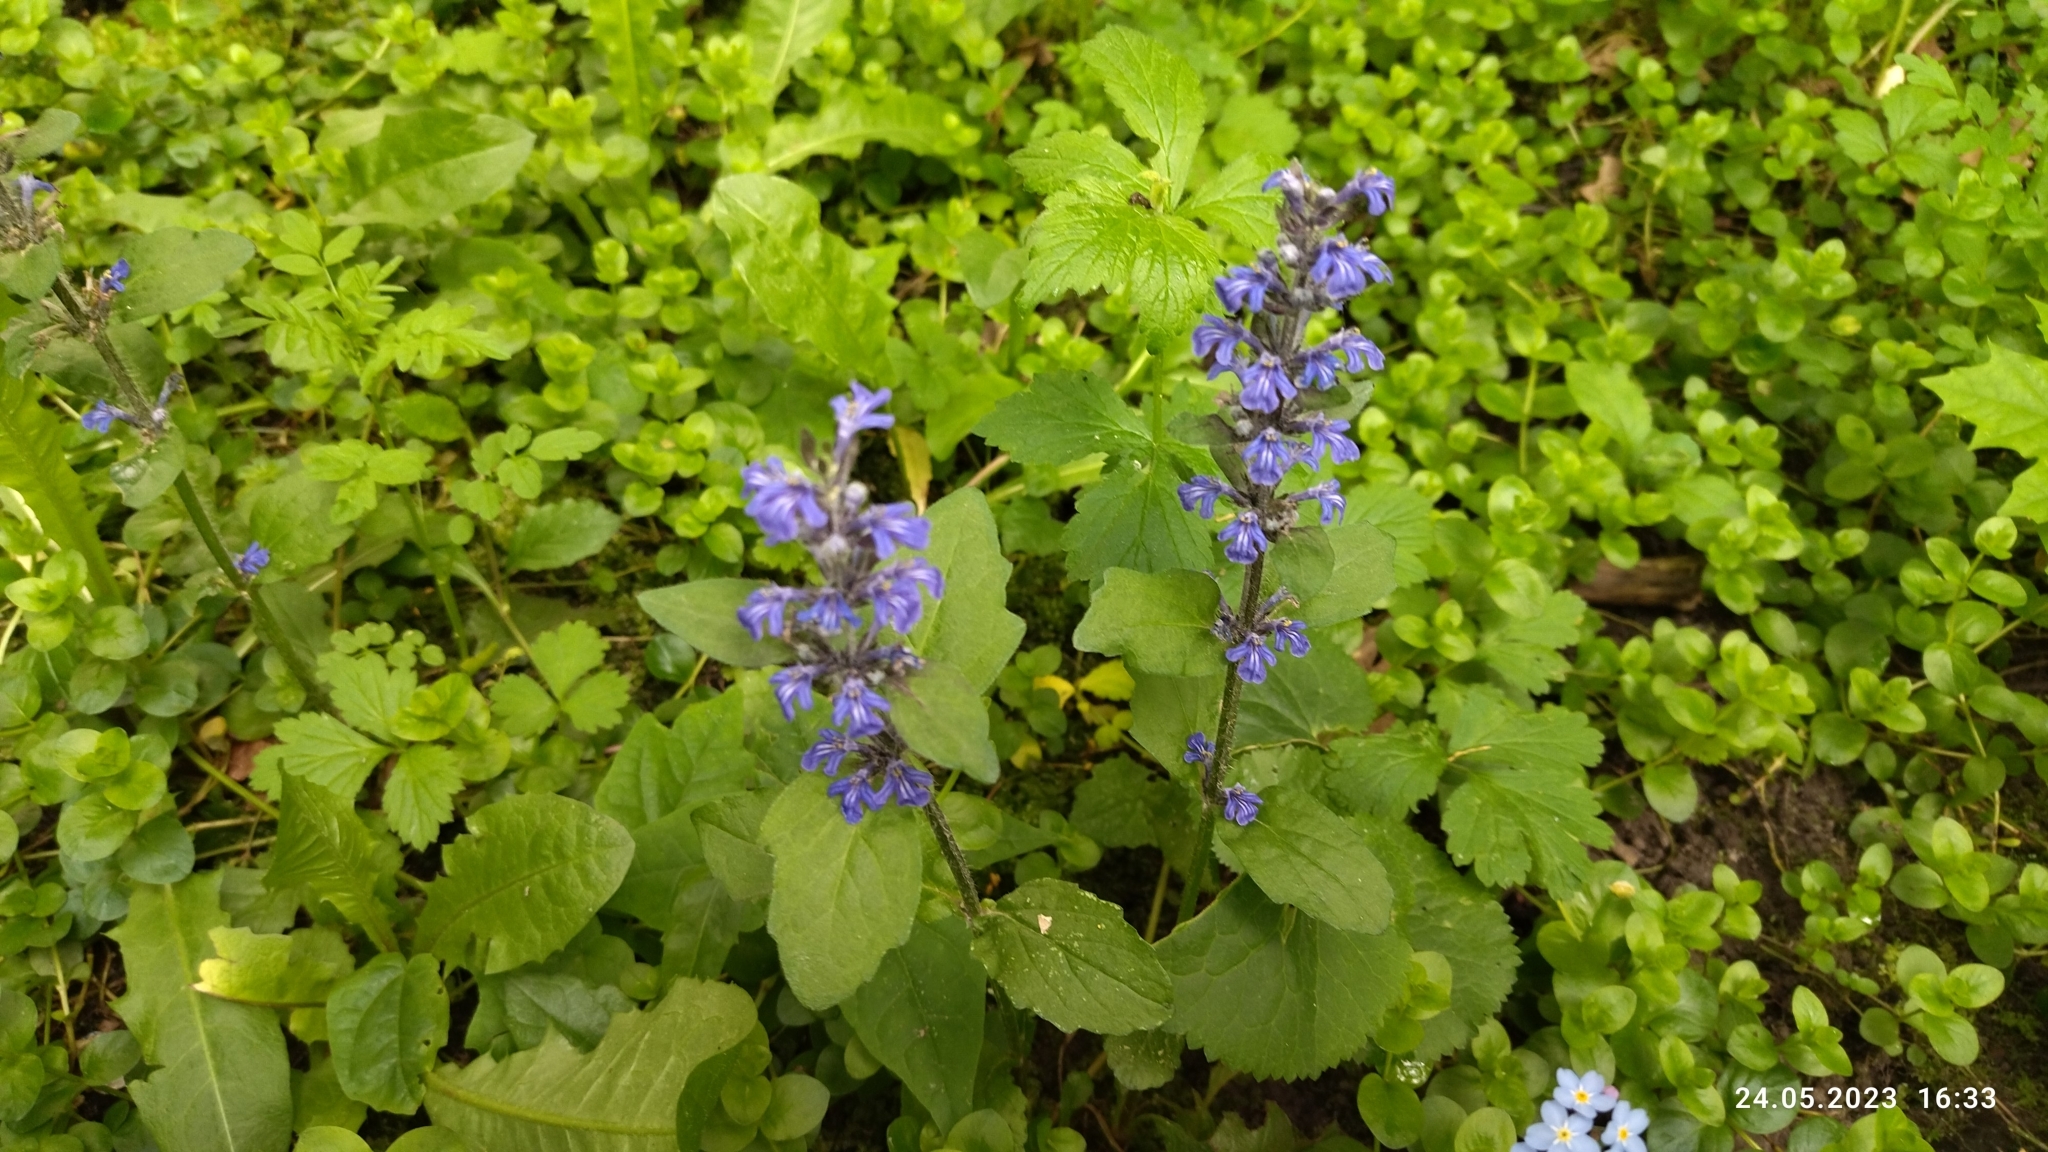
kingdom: Plantae
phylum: Tracheophyta
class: Magnoliopsida
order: Lamiales
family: Lamiaceae
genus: Ajuga
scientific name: Ajuga reptans
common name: Bugle
